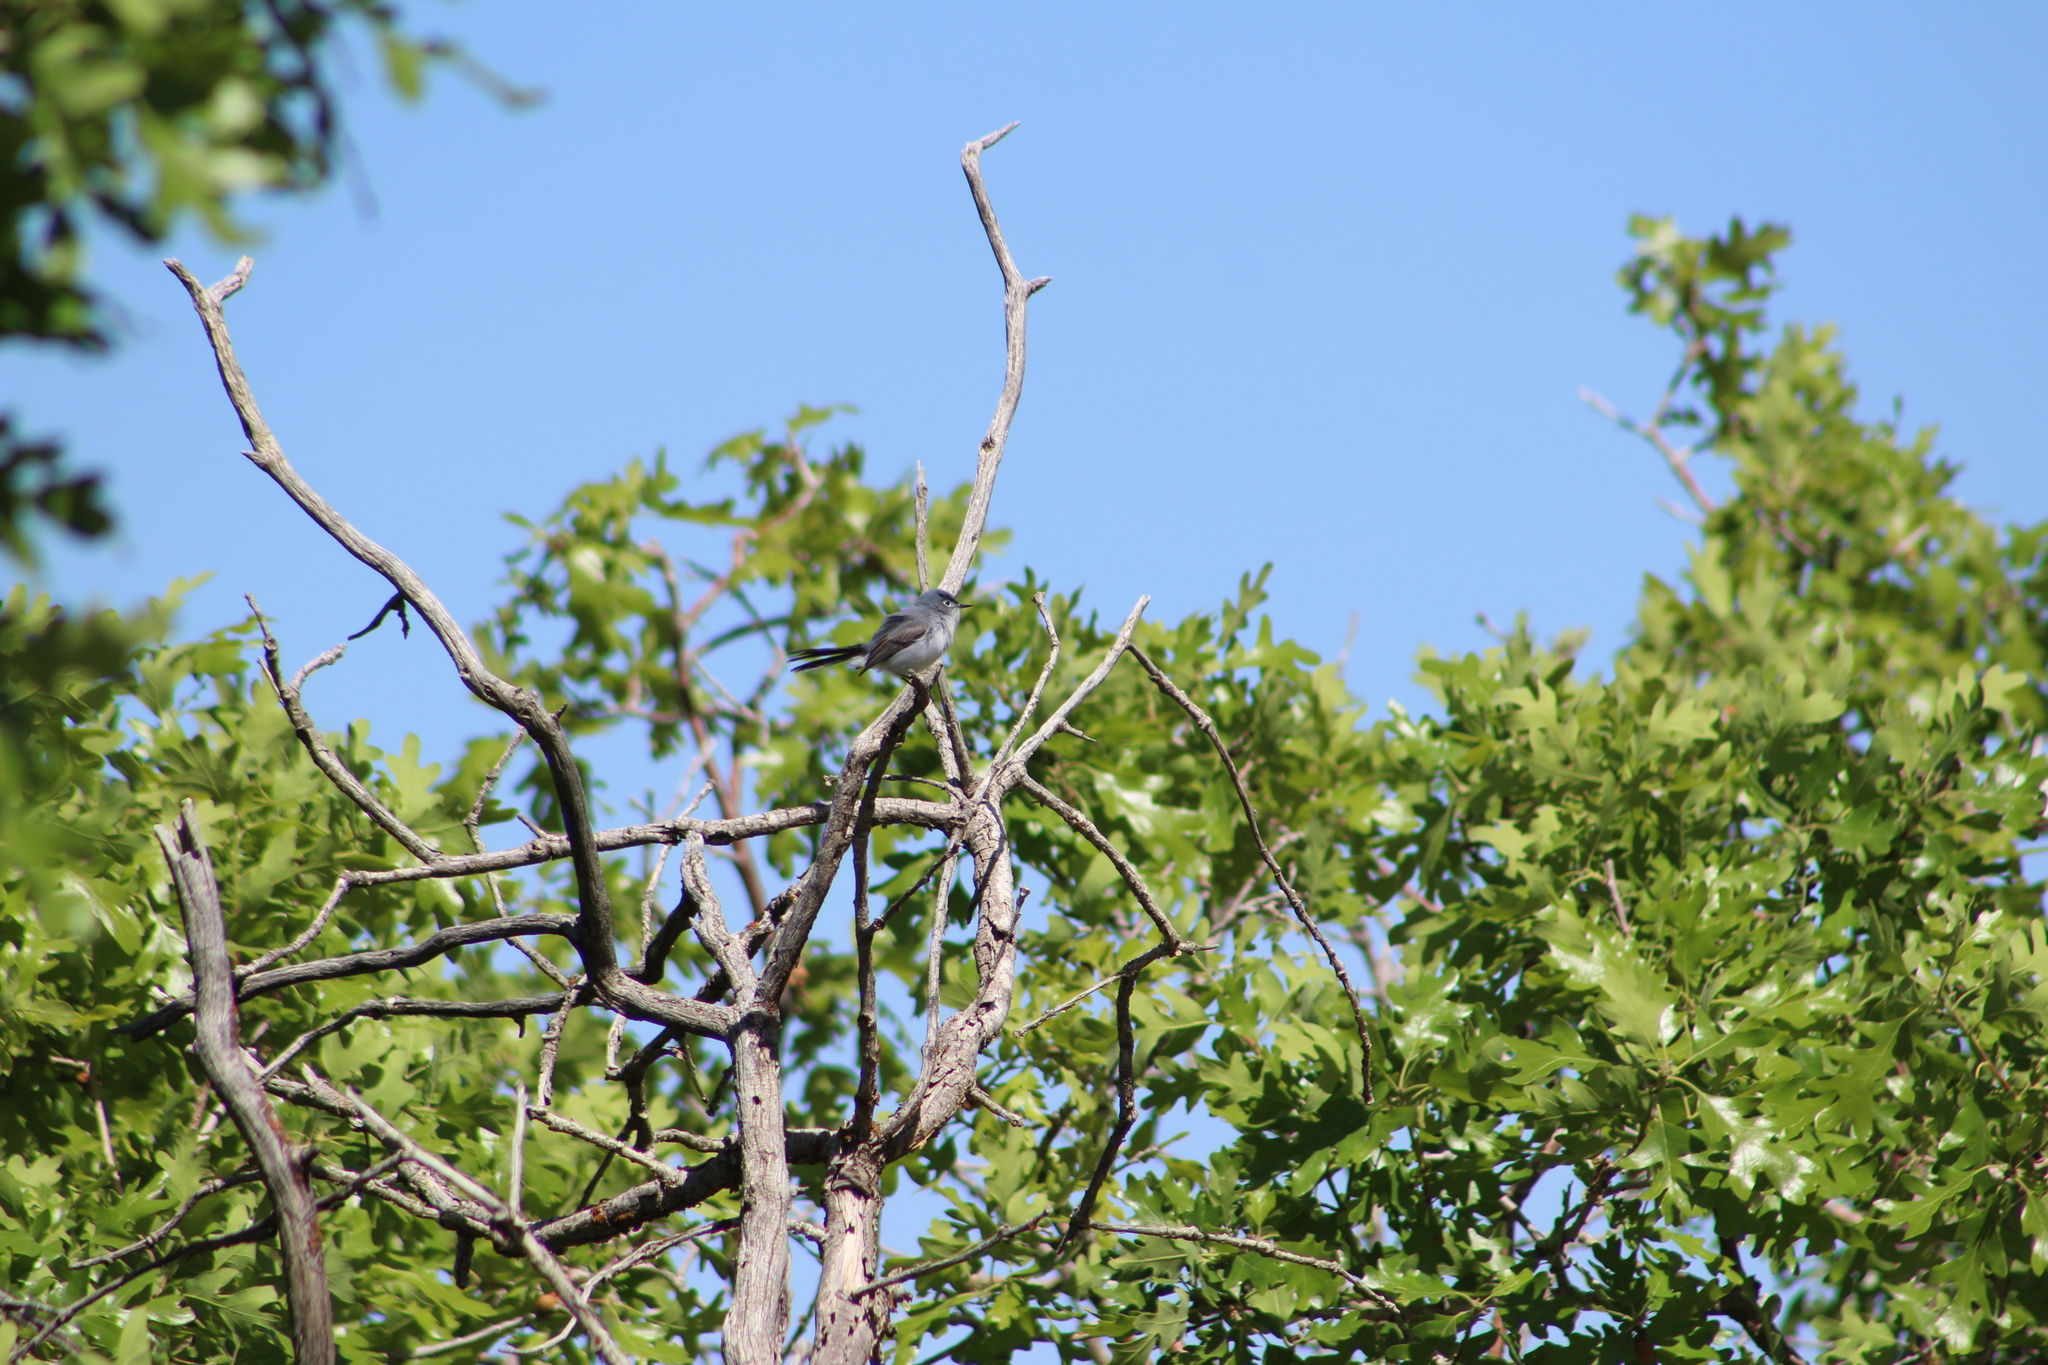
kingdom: Animalia
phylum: Chordata
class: Aves
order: Passeriformes
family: Polioptilidae
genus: Polioptila
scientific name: Polioptila caerulea
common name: Blue-gray gnatcatcher
